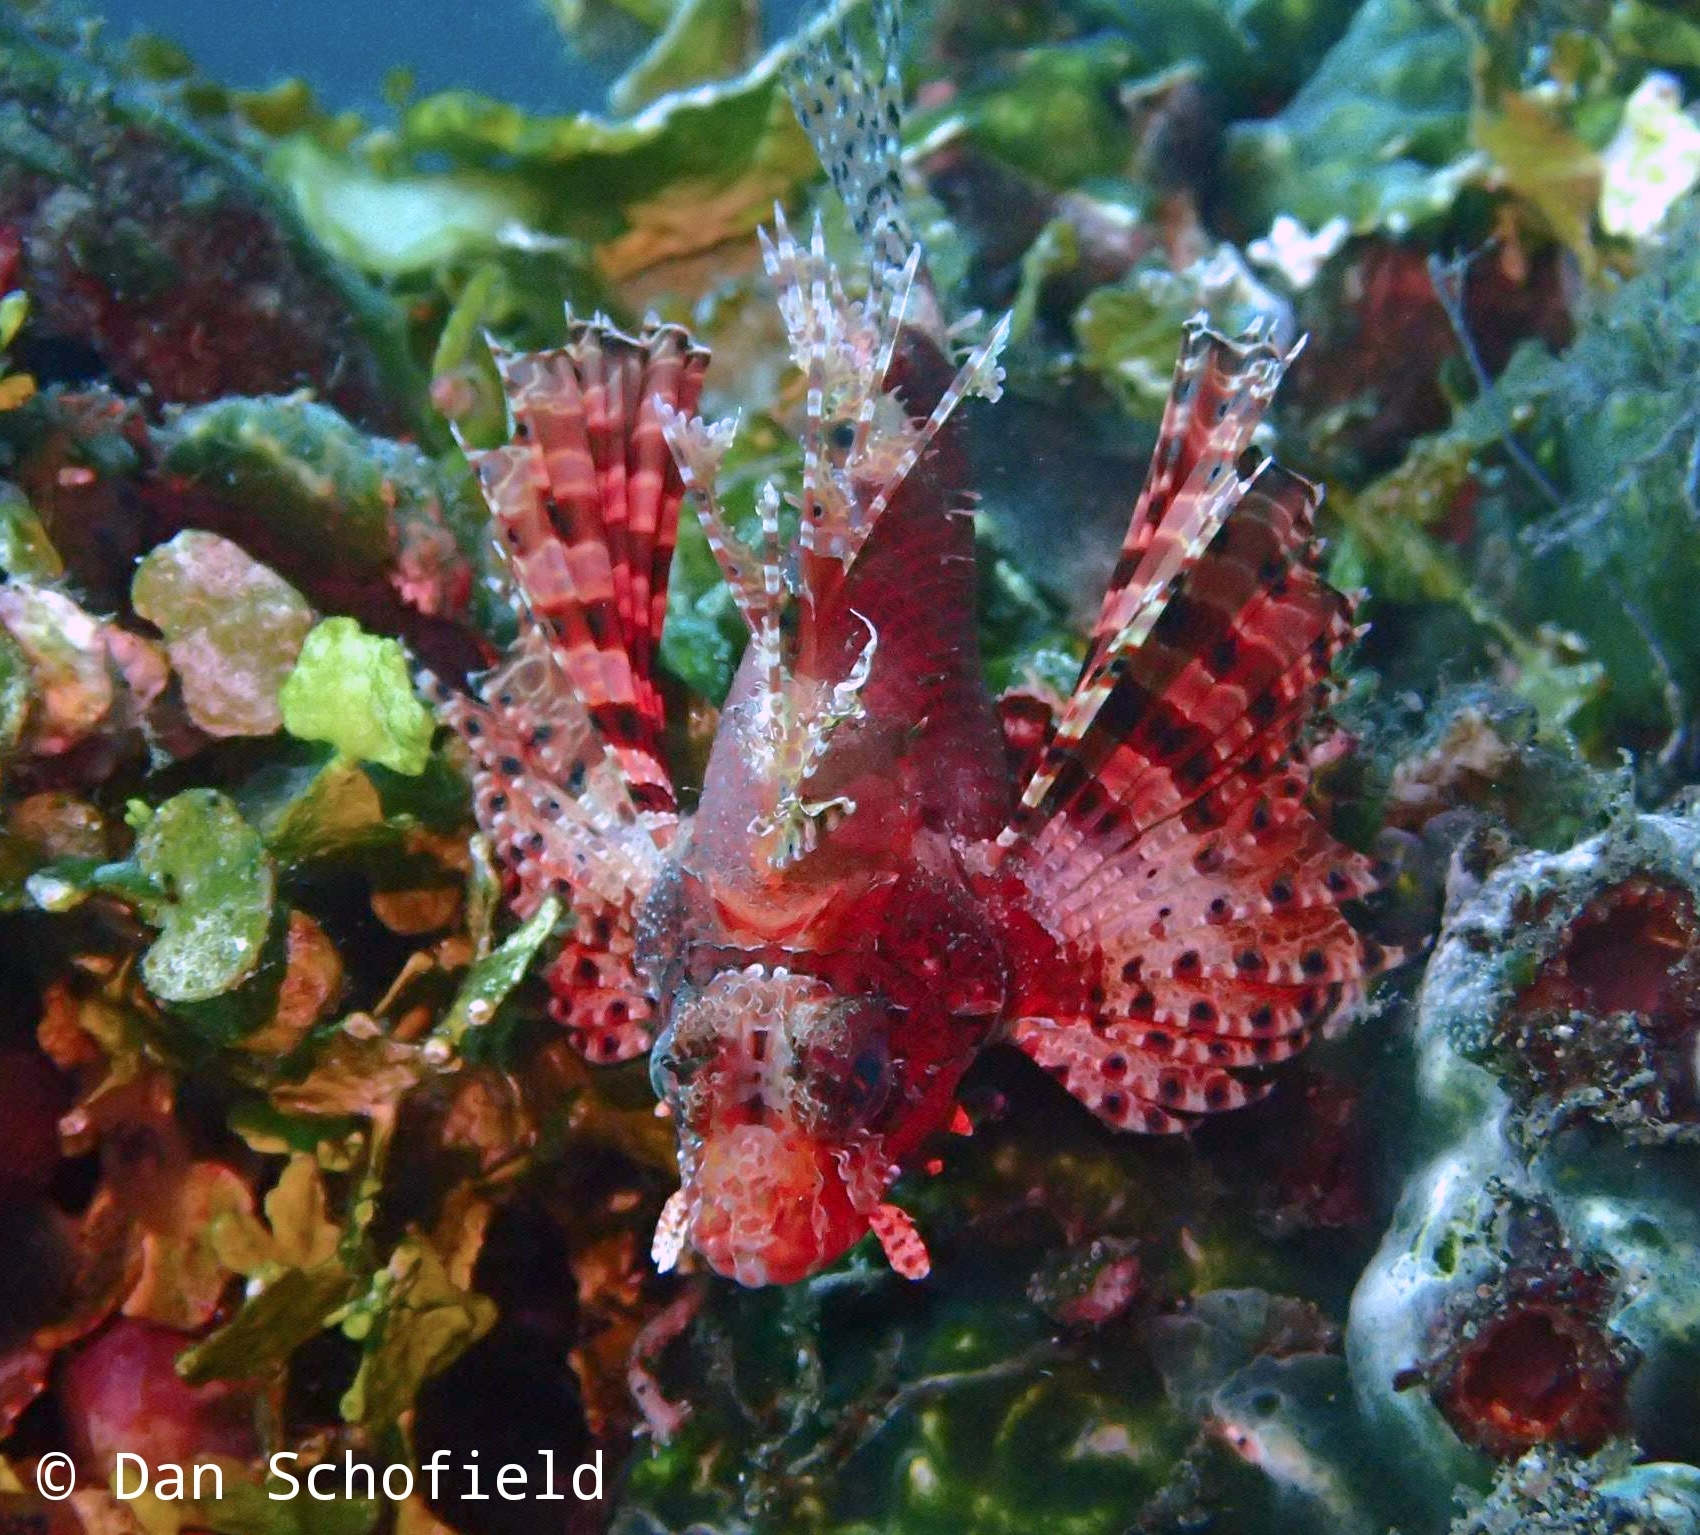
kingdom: Animalia
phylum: Chordata
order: Scorpaeniformes
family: Scorpaenidae
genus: Dendrochirus
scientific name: Dendrochirus brachypterus
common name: Shortfin turkeyfish
